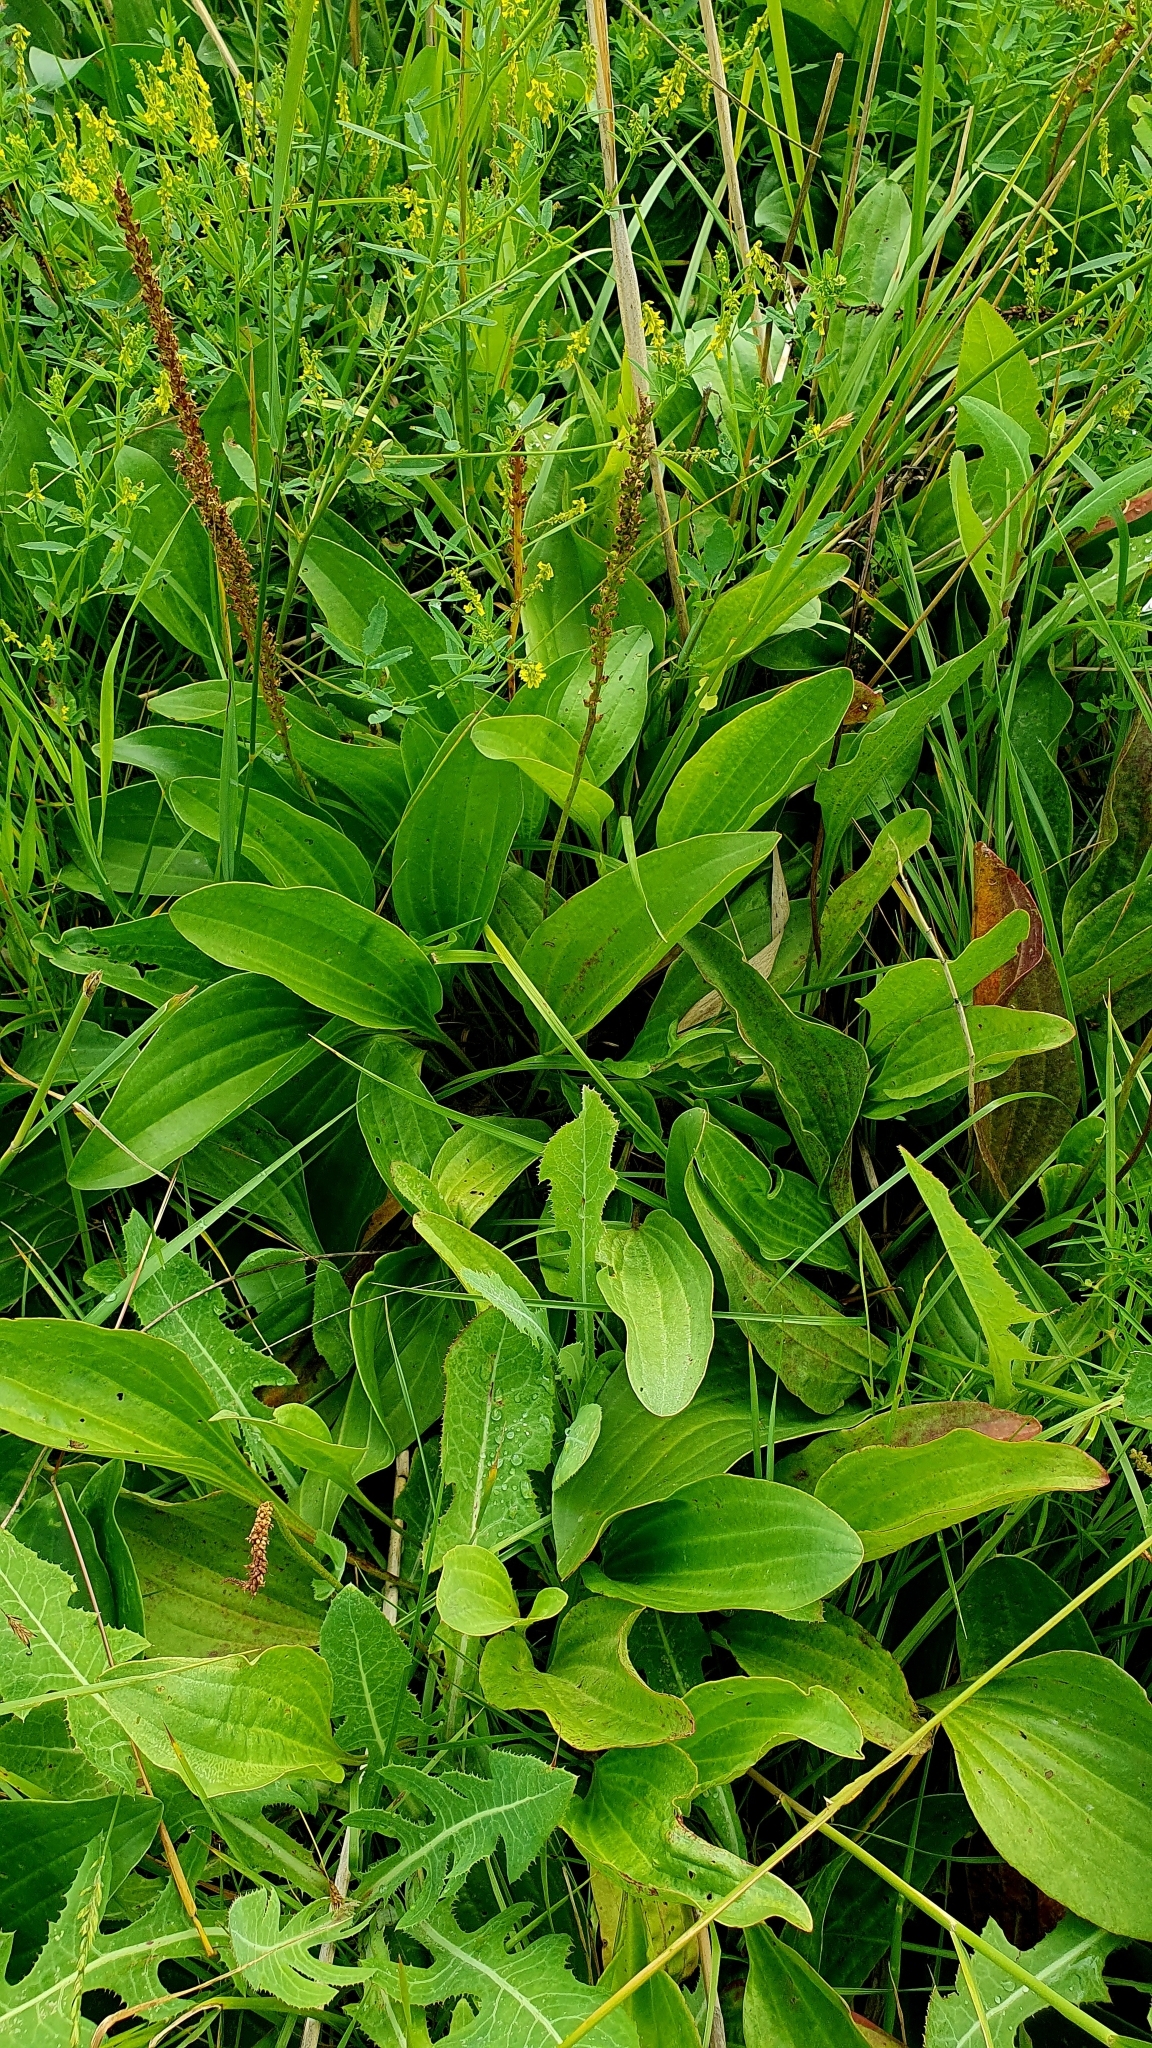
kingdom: Plantae
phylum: Tracheophyta
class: Magnoliopsida
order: Lamiales
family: Plantaginaceae
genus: Plantago
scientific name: Plantago cornuti
